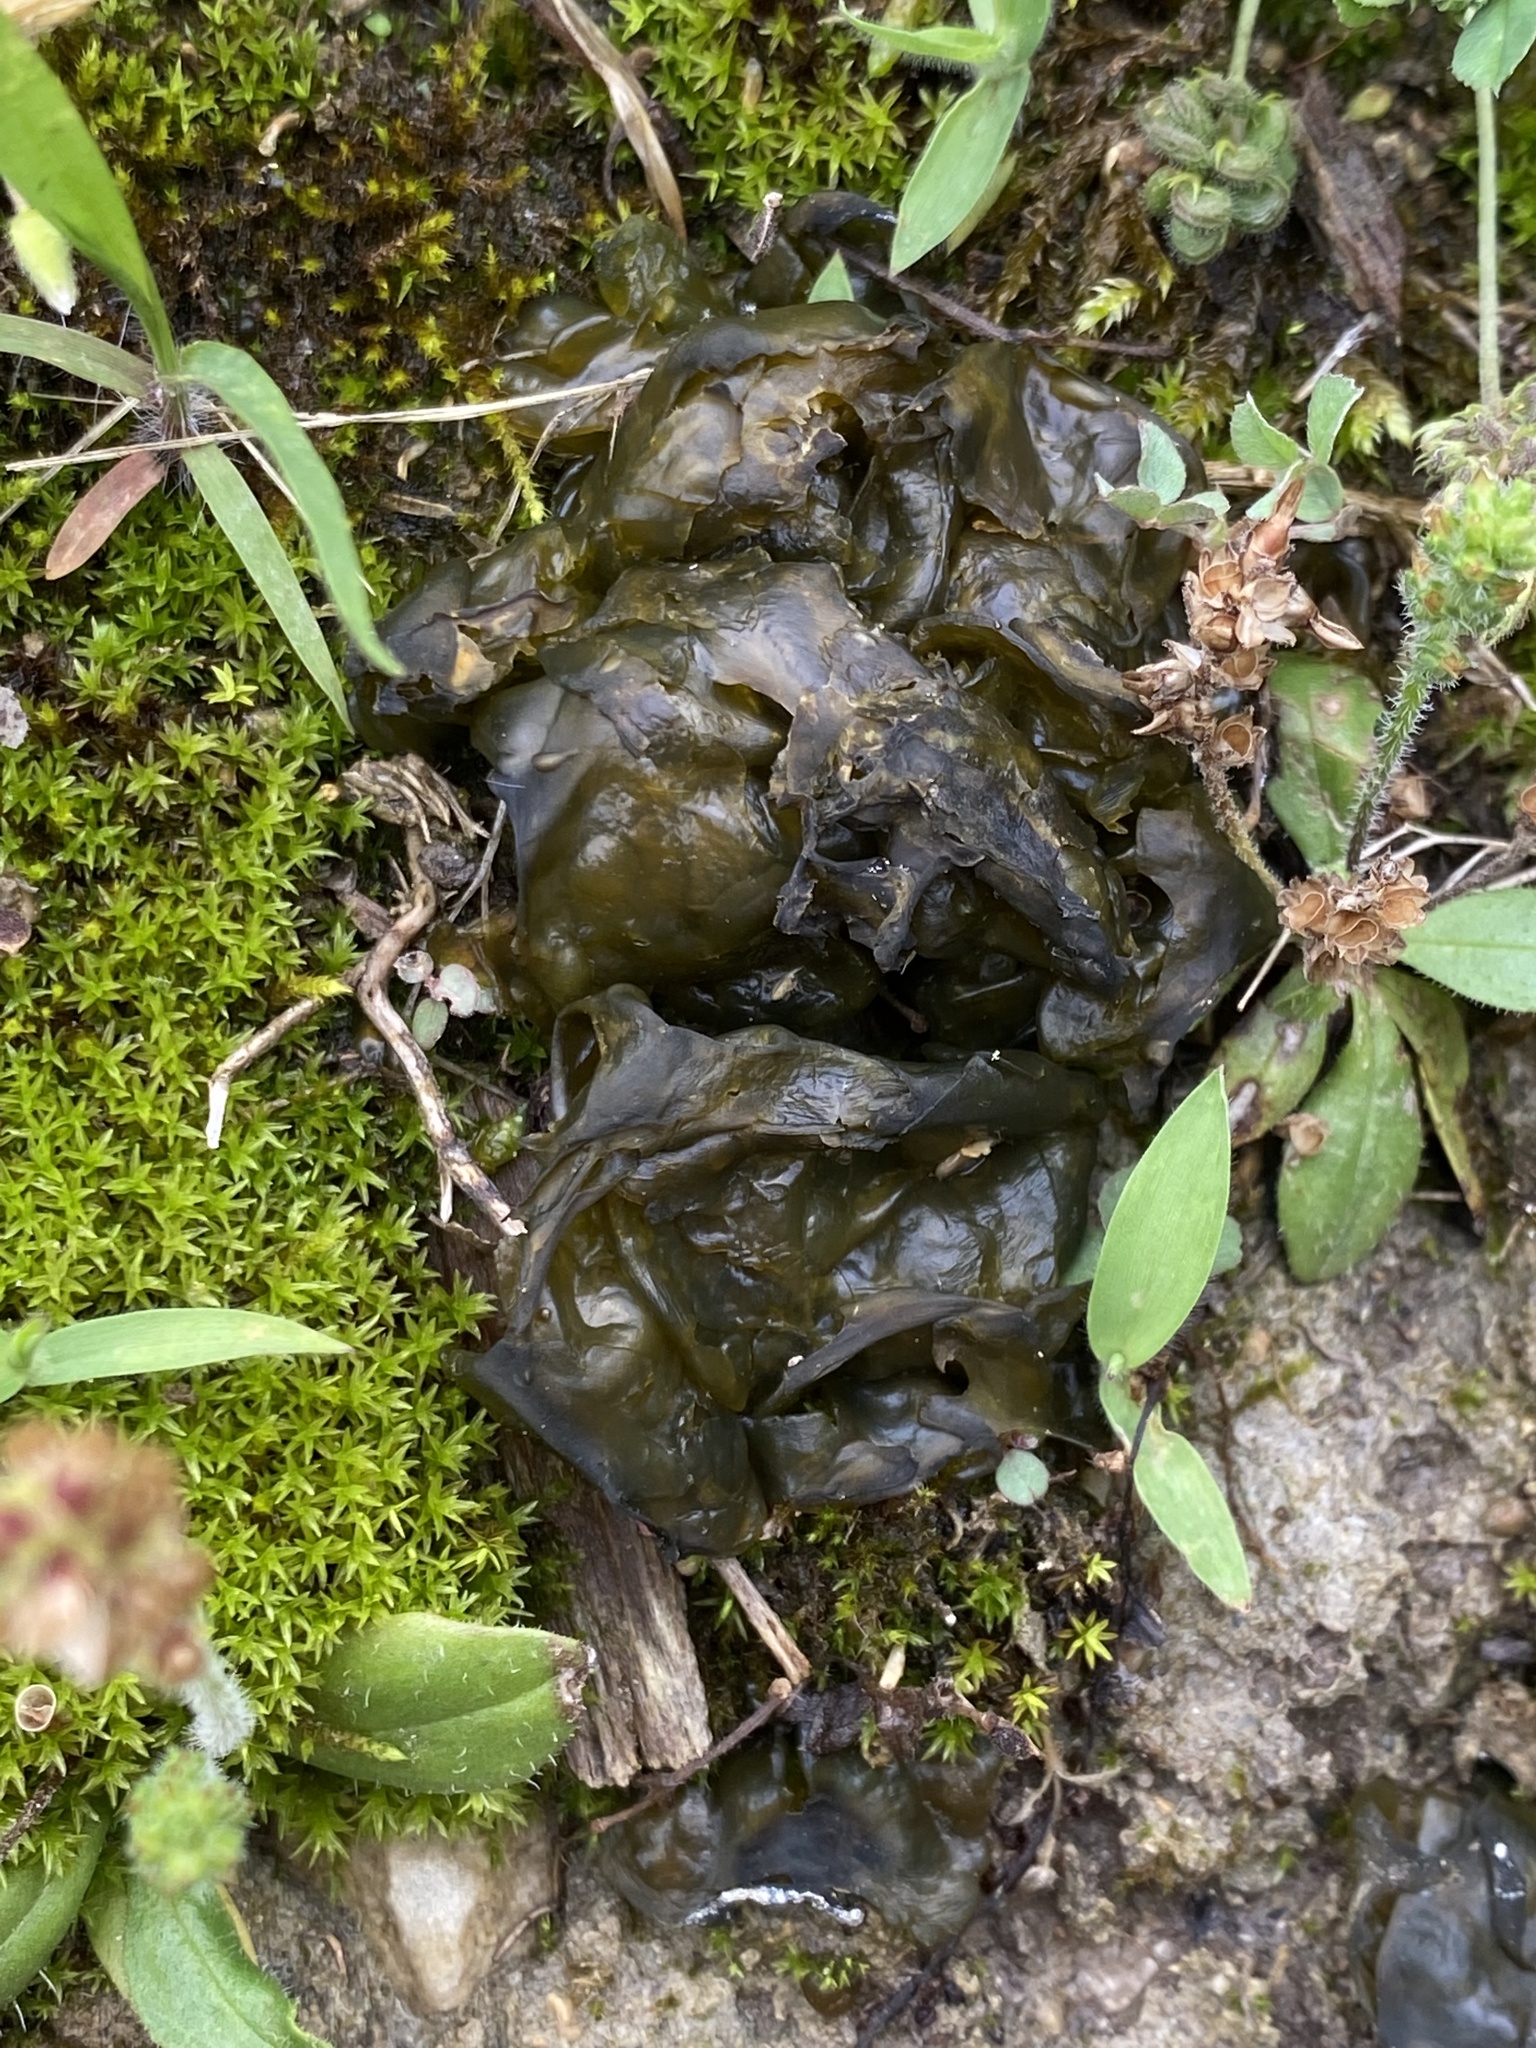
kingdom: Bacteria
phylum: Cyanobacteria
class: Cyanobacteriia
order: Cyanobacteriales
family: Nostocaceae
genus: Nostoc
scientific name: Nostoc commune
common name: Star jelly
